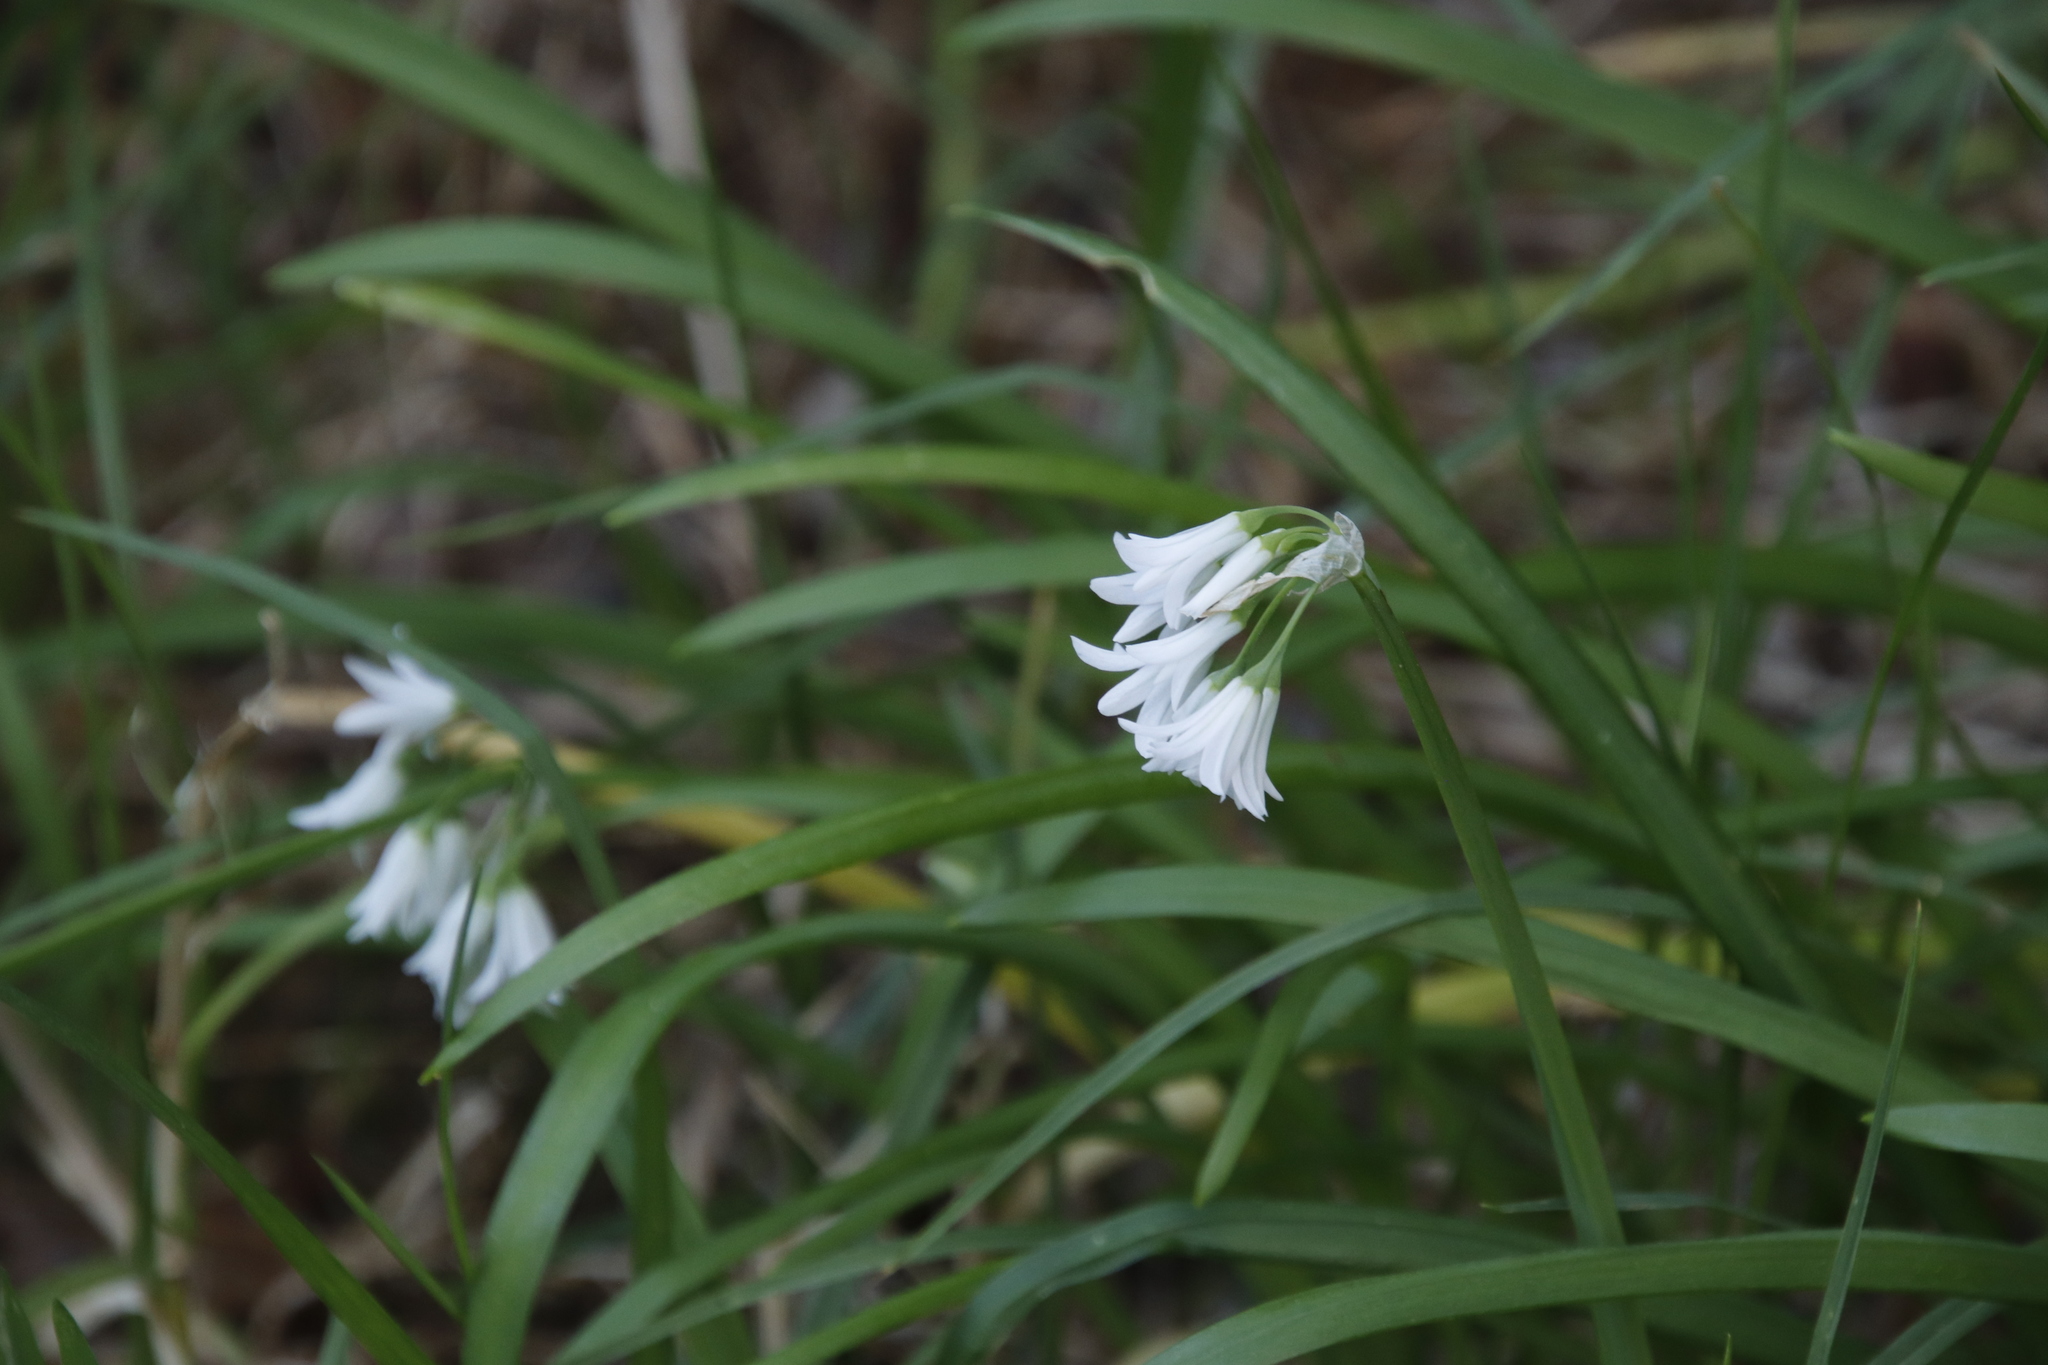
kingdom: Plantae
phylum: Tracheophyta
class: Liliopsida
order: Asparagales
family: Amaryllidaceae
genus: Allium
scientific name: Allium triquetrum
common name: Three-cornered garlic
